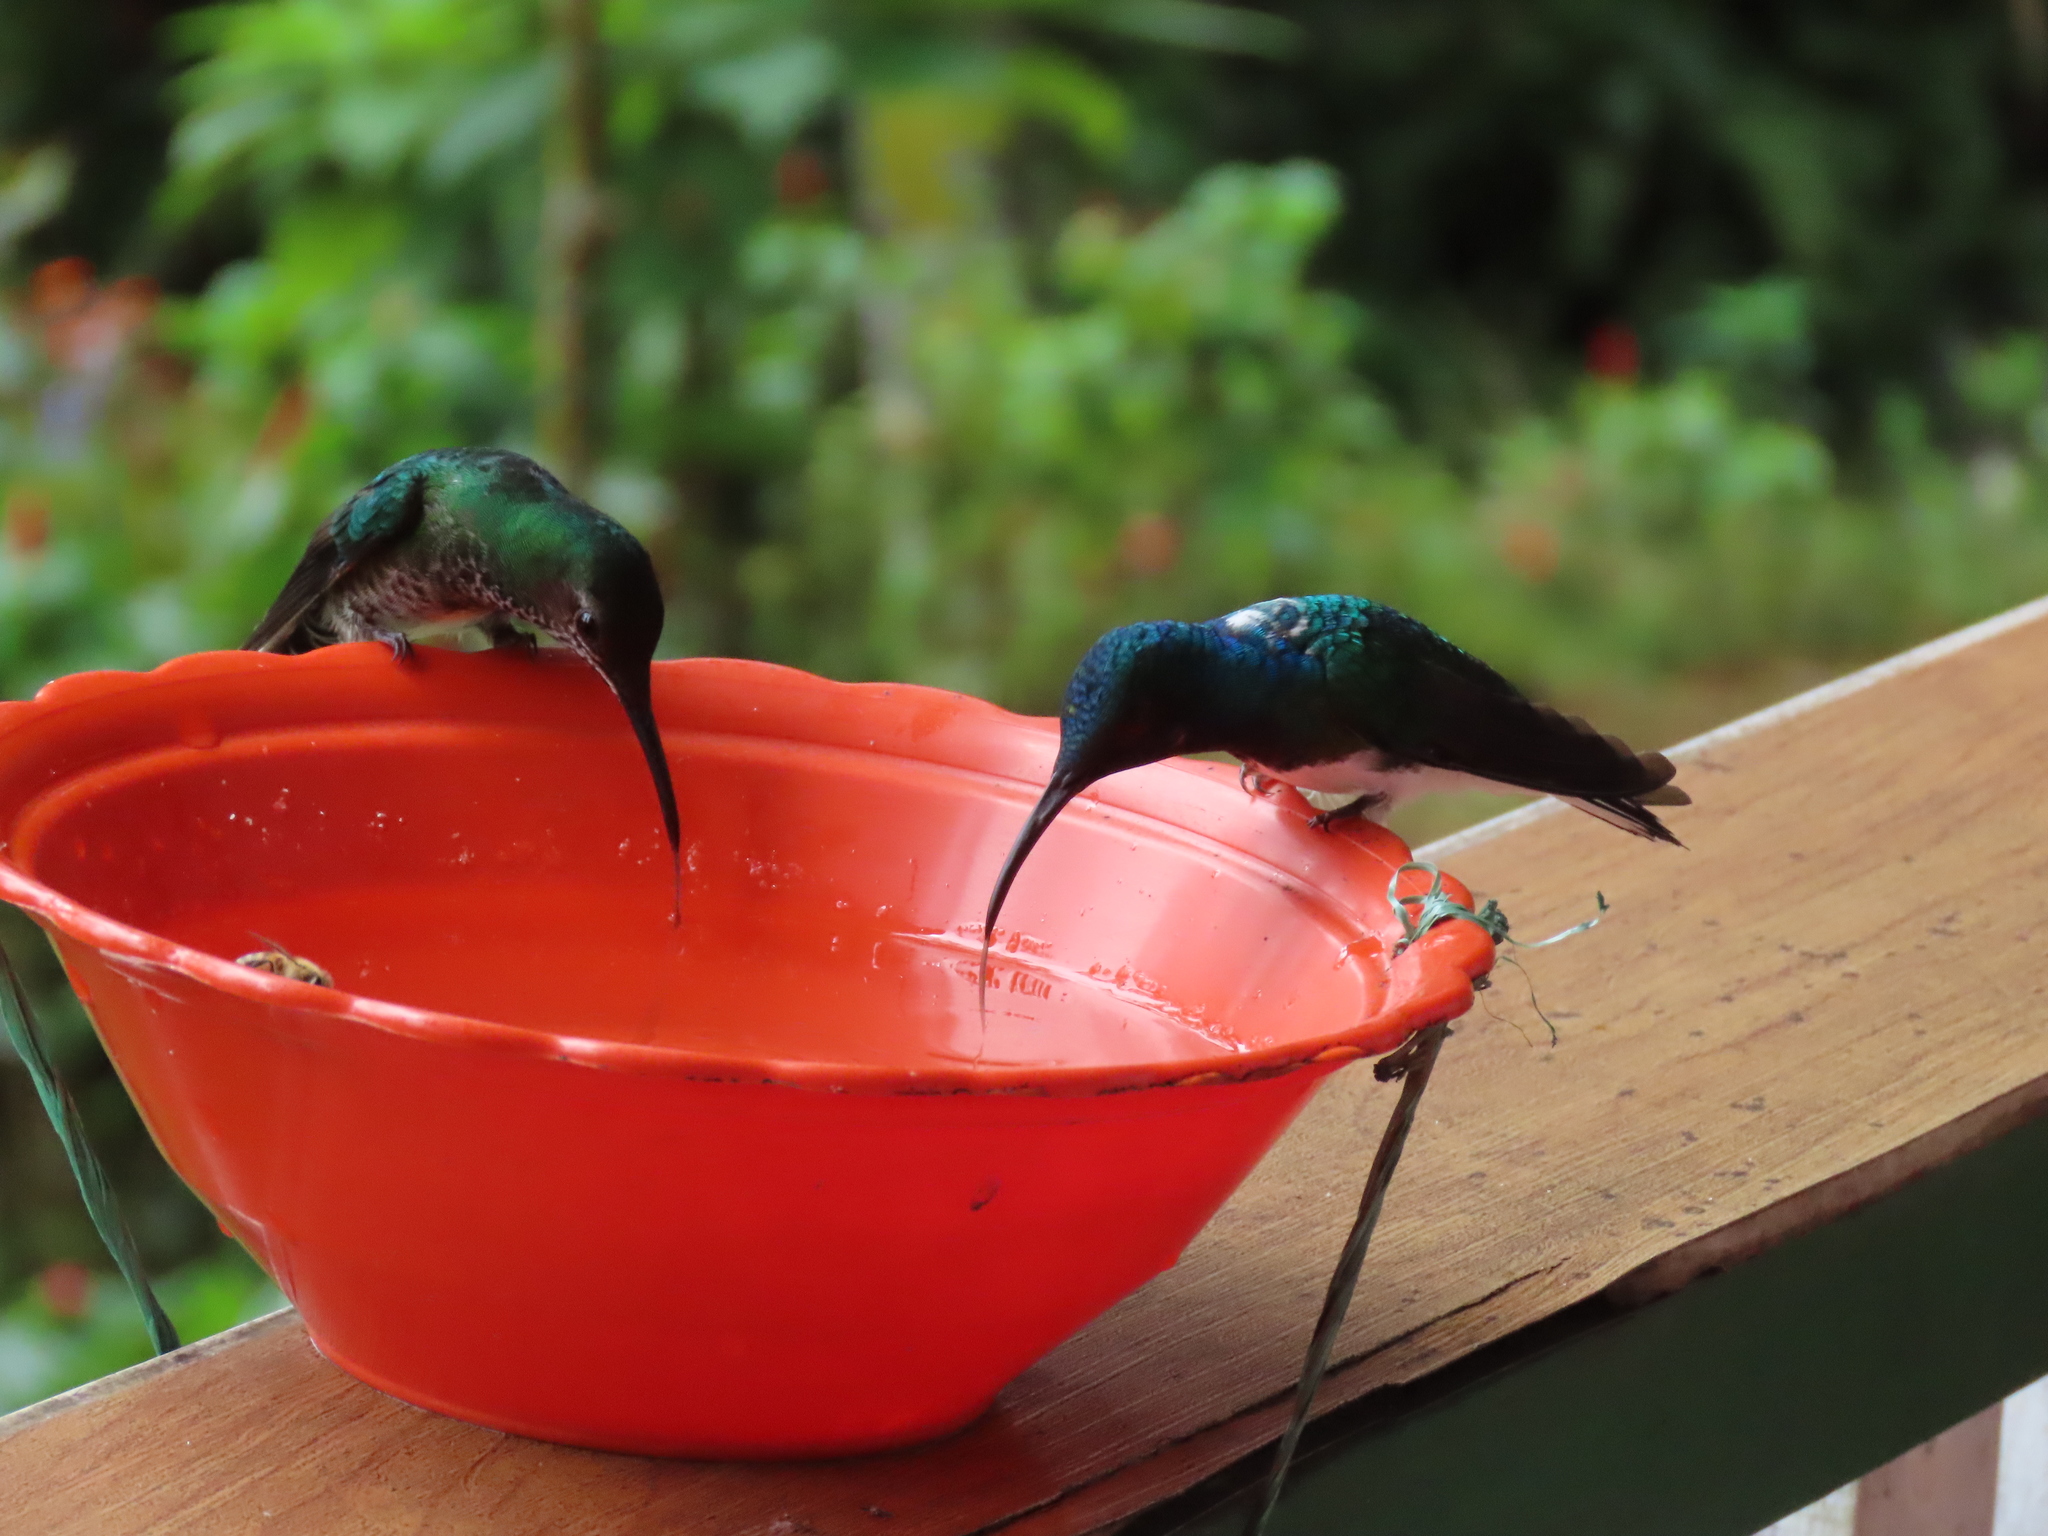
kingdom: Animalia
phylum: Chordata
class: Aves
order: Apodiformes
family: Trochilidae
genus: Florisuga
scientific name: Florisuga mellivora
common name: White-necked jacobin
